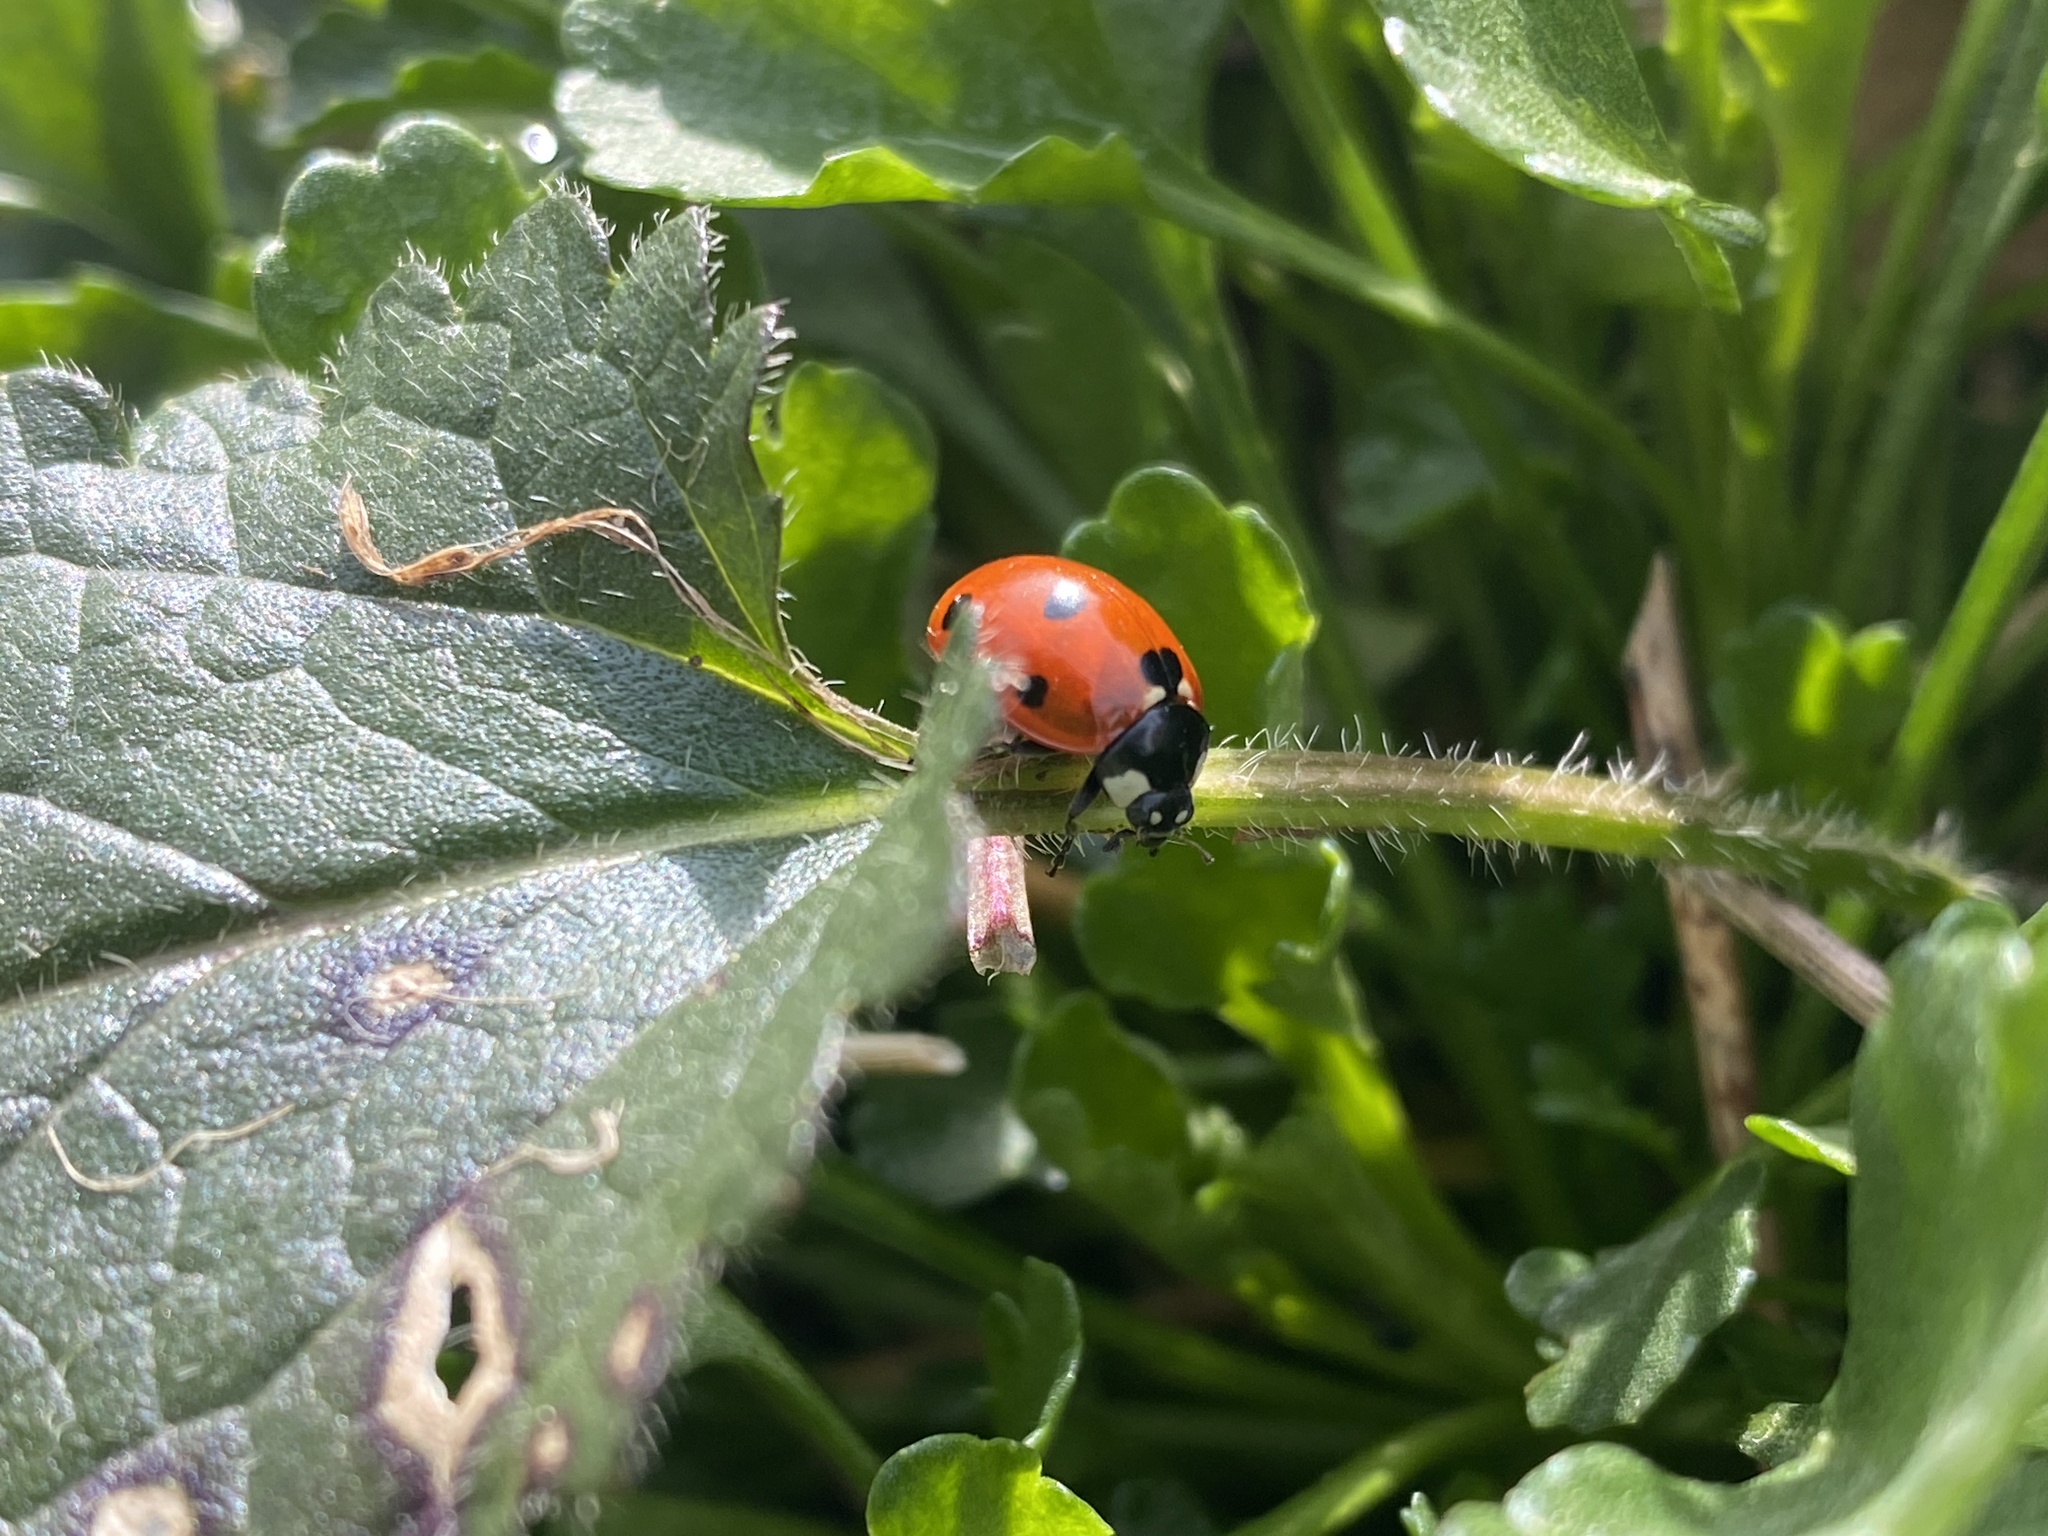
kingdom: Animalia
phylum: Arthropoda
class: Insecta
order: Coleoptera
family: Coccinellidae
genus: Coccinella
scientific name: Coccinella septempunctata
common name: Sevenspotted lady beetle
